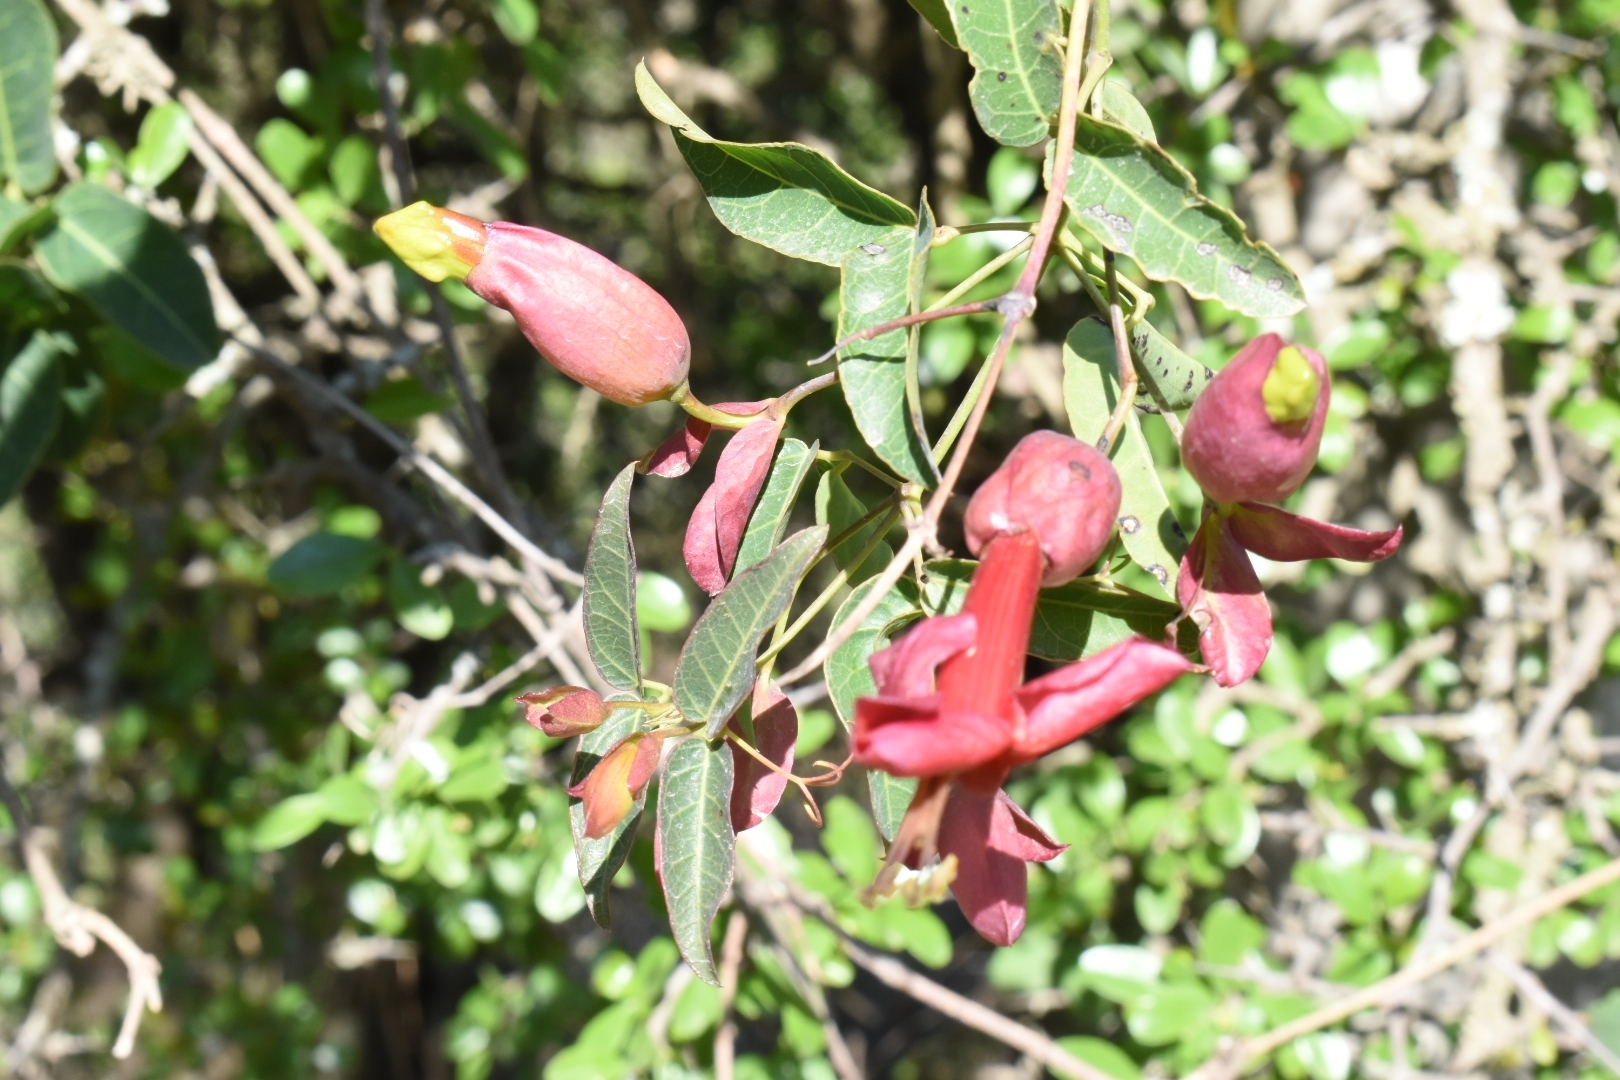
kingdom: Plantae
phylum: Tracheophyta
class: Magnoliopsida
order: Lamiales
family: Bignoniaceae
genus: Dolichandra
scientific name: Dolichandra cynanchoides
